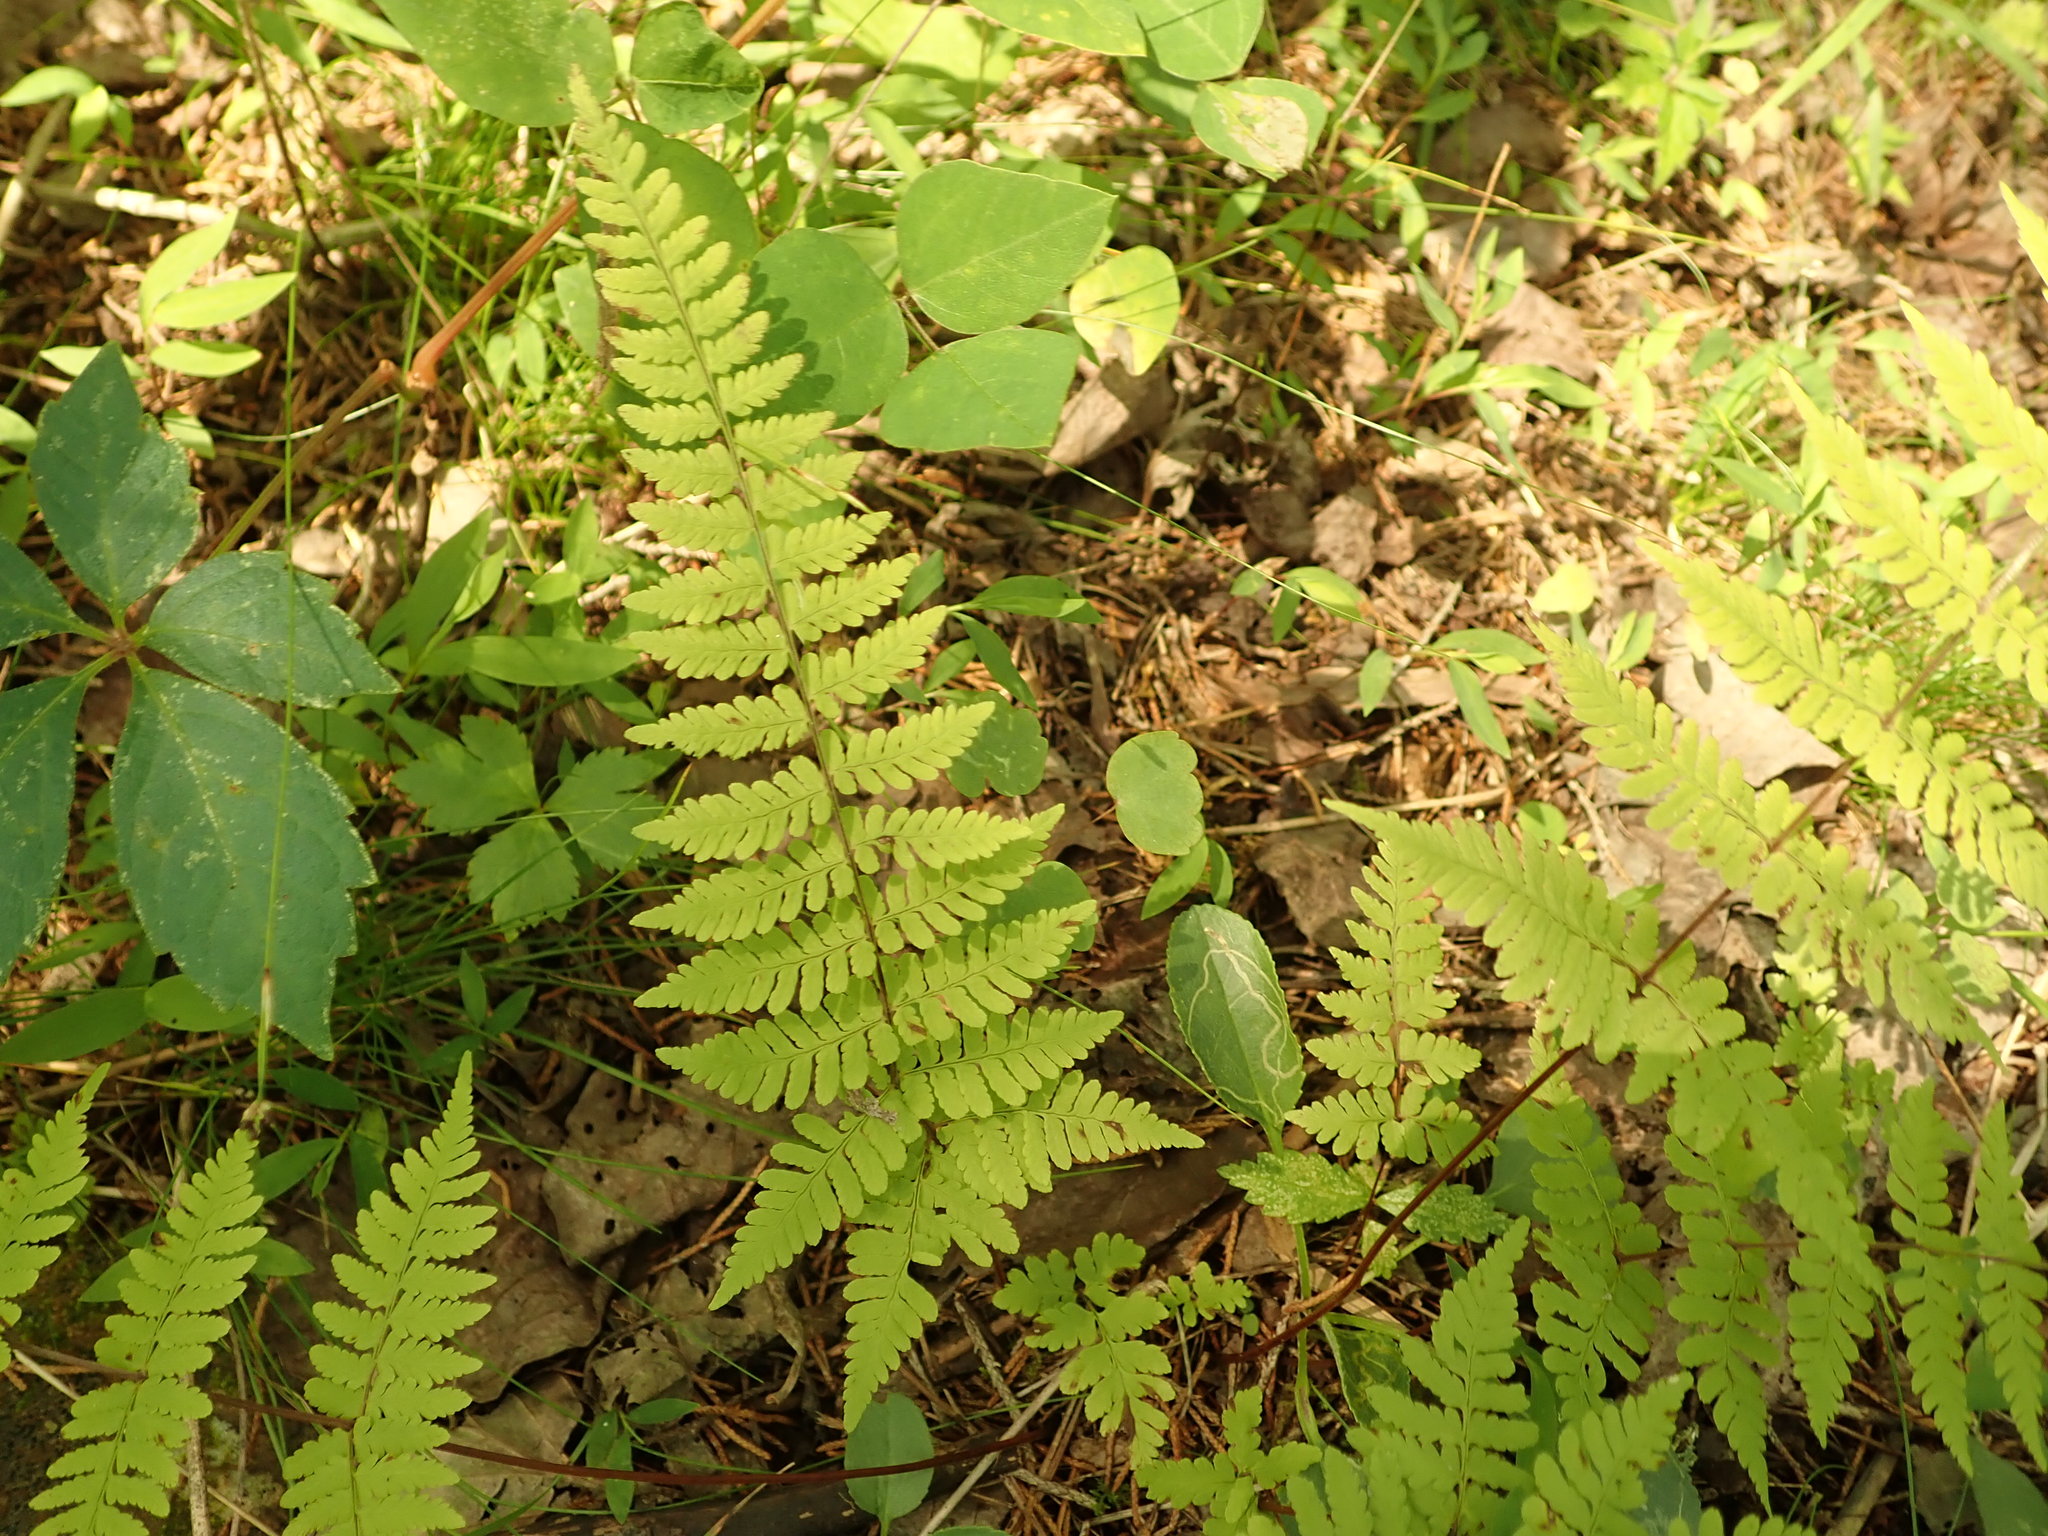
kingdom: Plantae
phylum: Tracheophyta
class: Polypodiopsida
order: Polypodiales
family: Cystopteridaceae
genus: Cystopteris
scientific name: Cystopteris bulbifera
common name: Bulblet bladder fern
